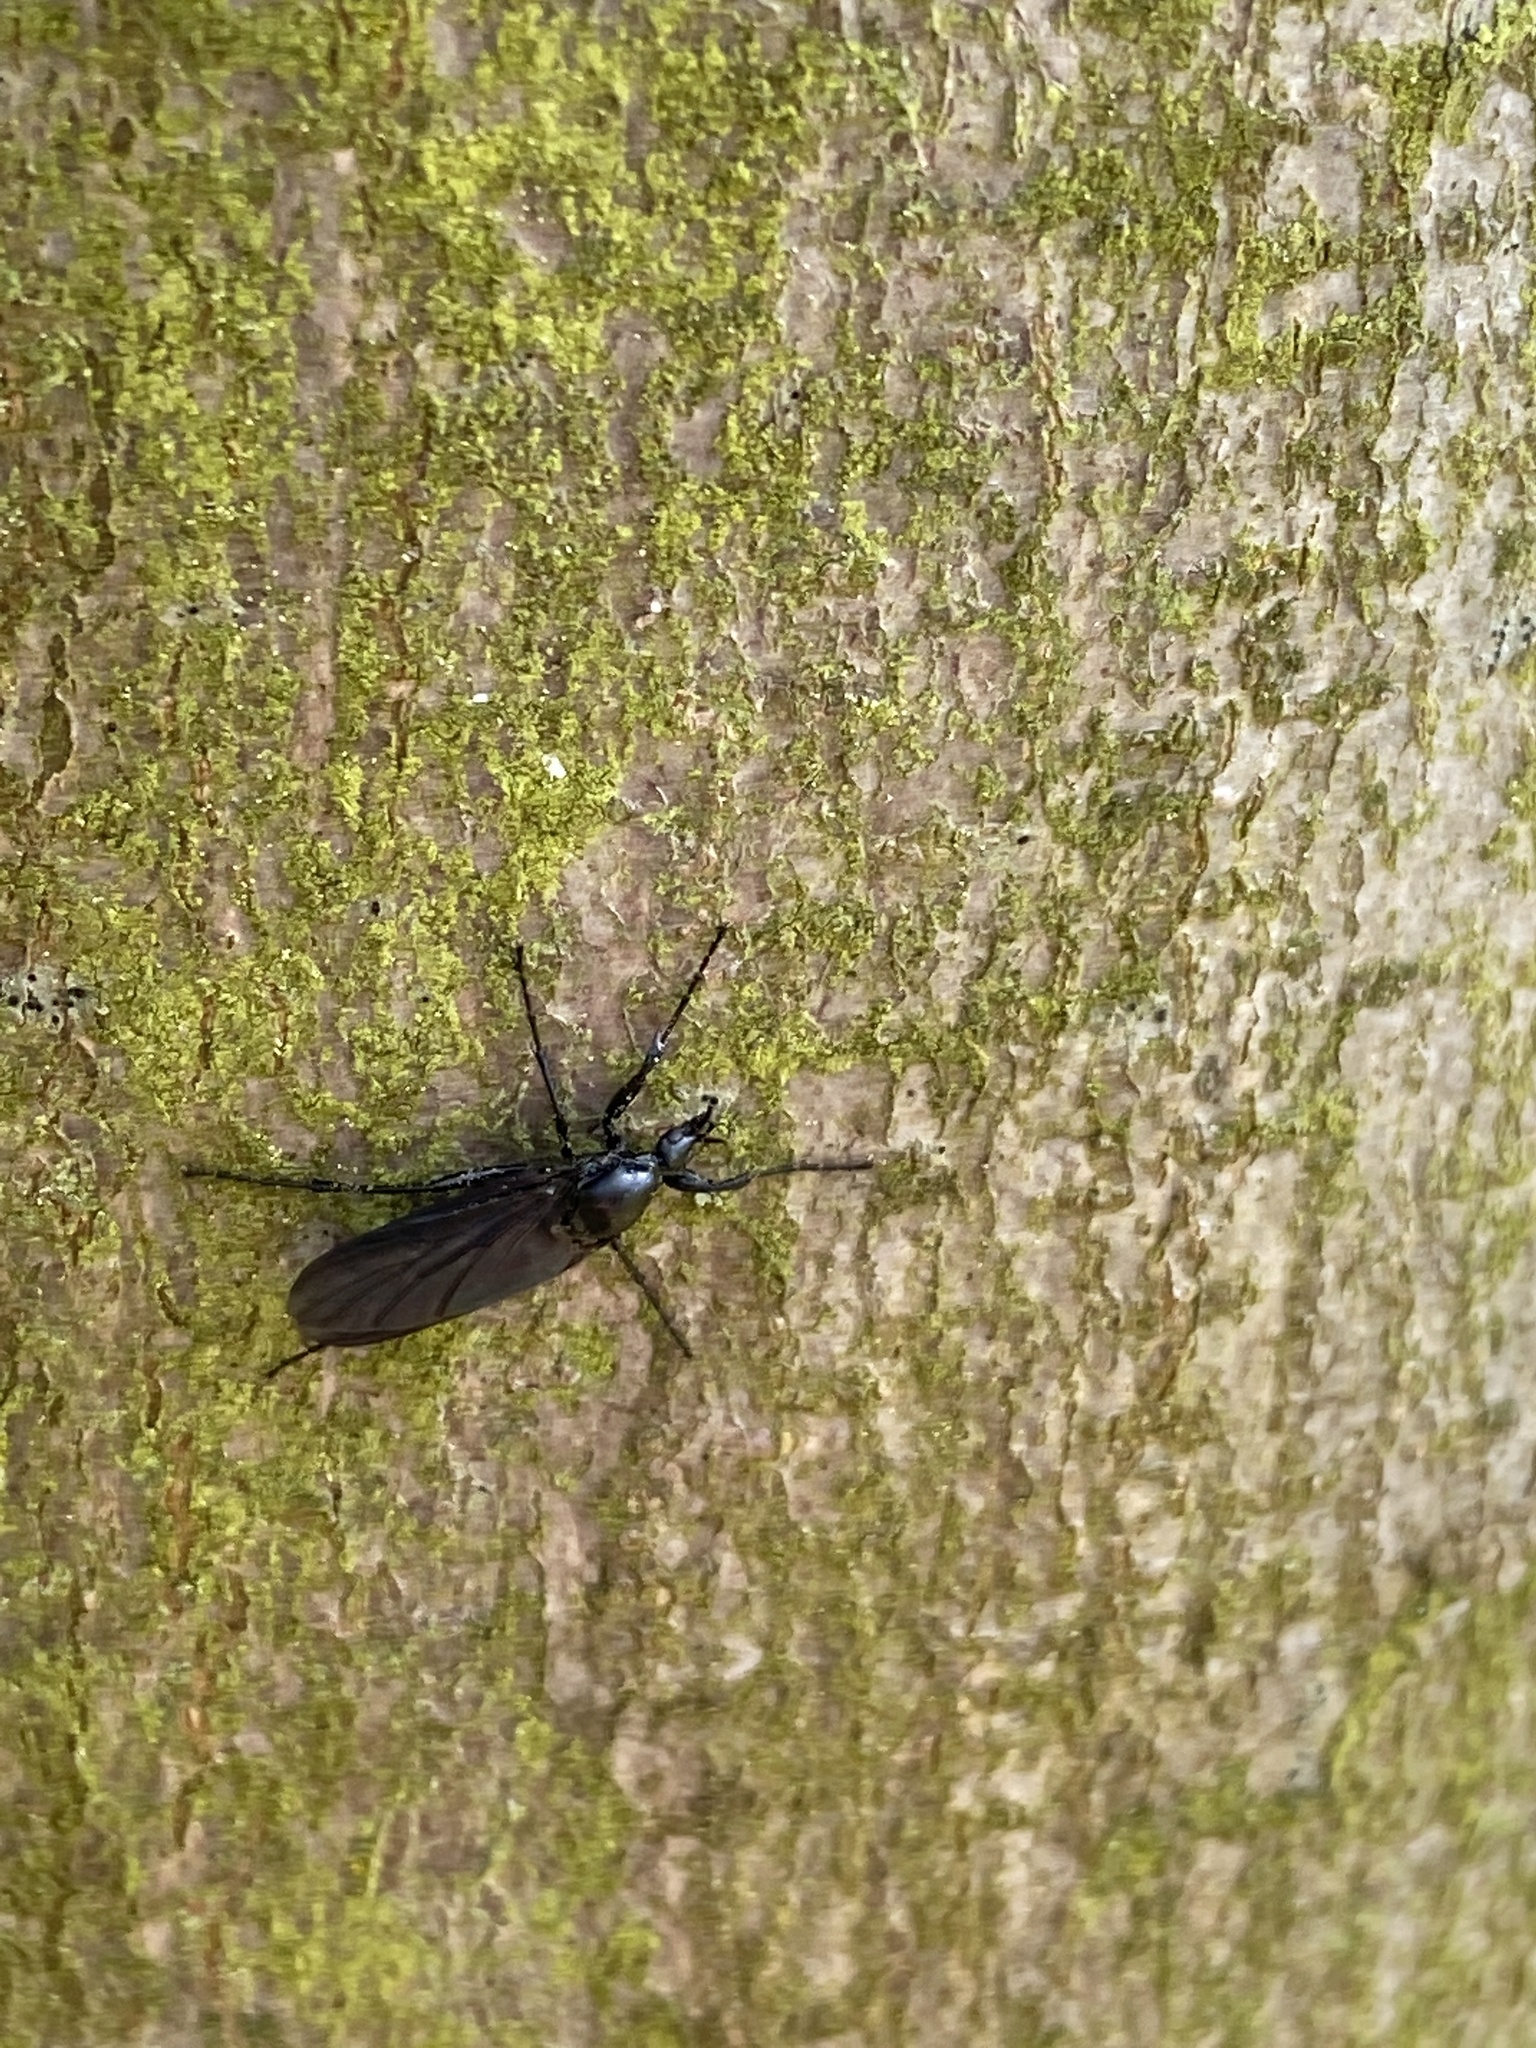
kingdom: Animalia
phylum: Arthropoda
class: Insecta
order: Diptera
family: Bibionidae
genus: Bibio
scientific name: Bibio leucoptera
